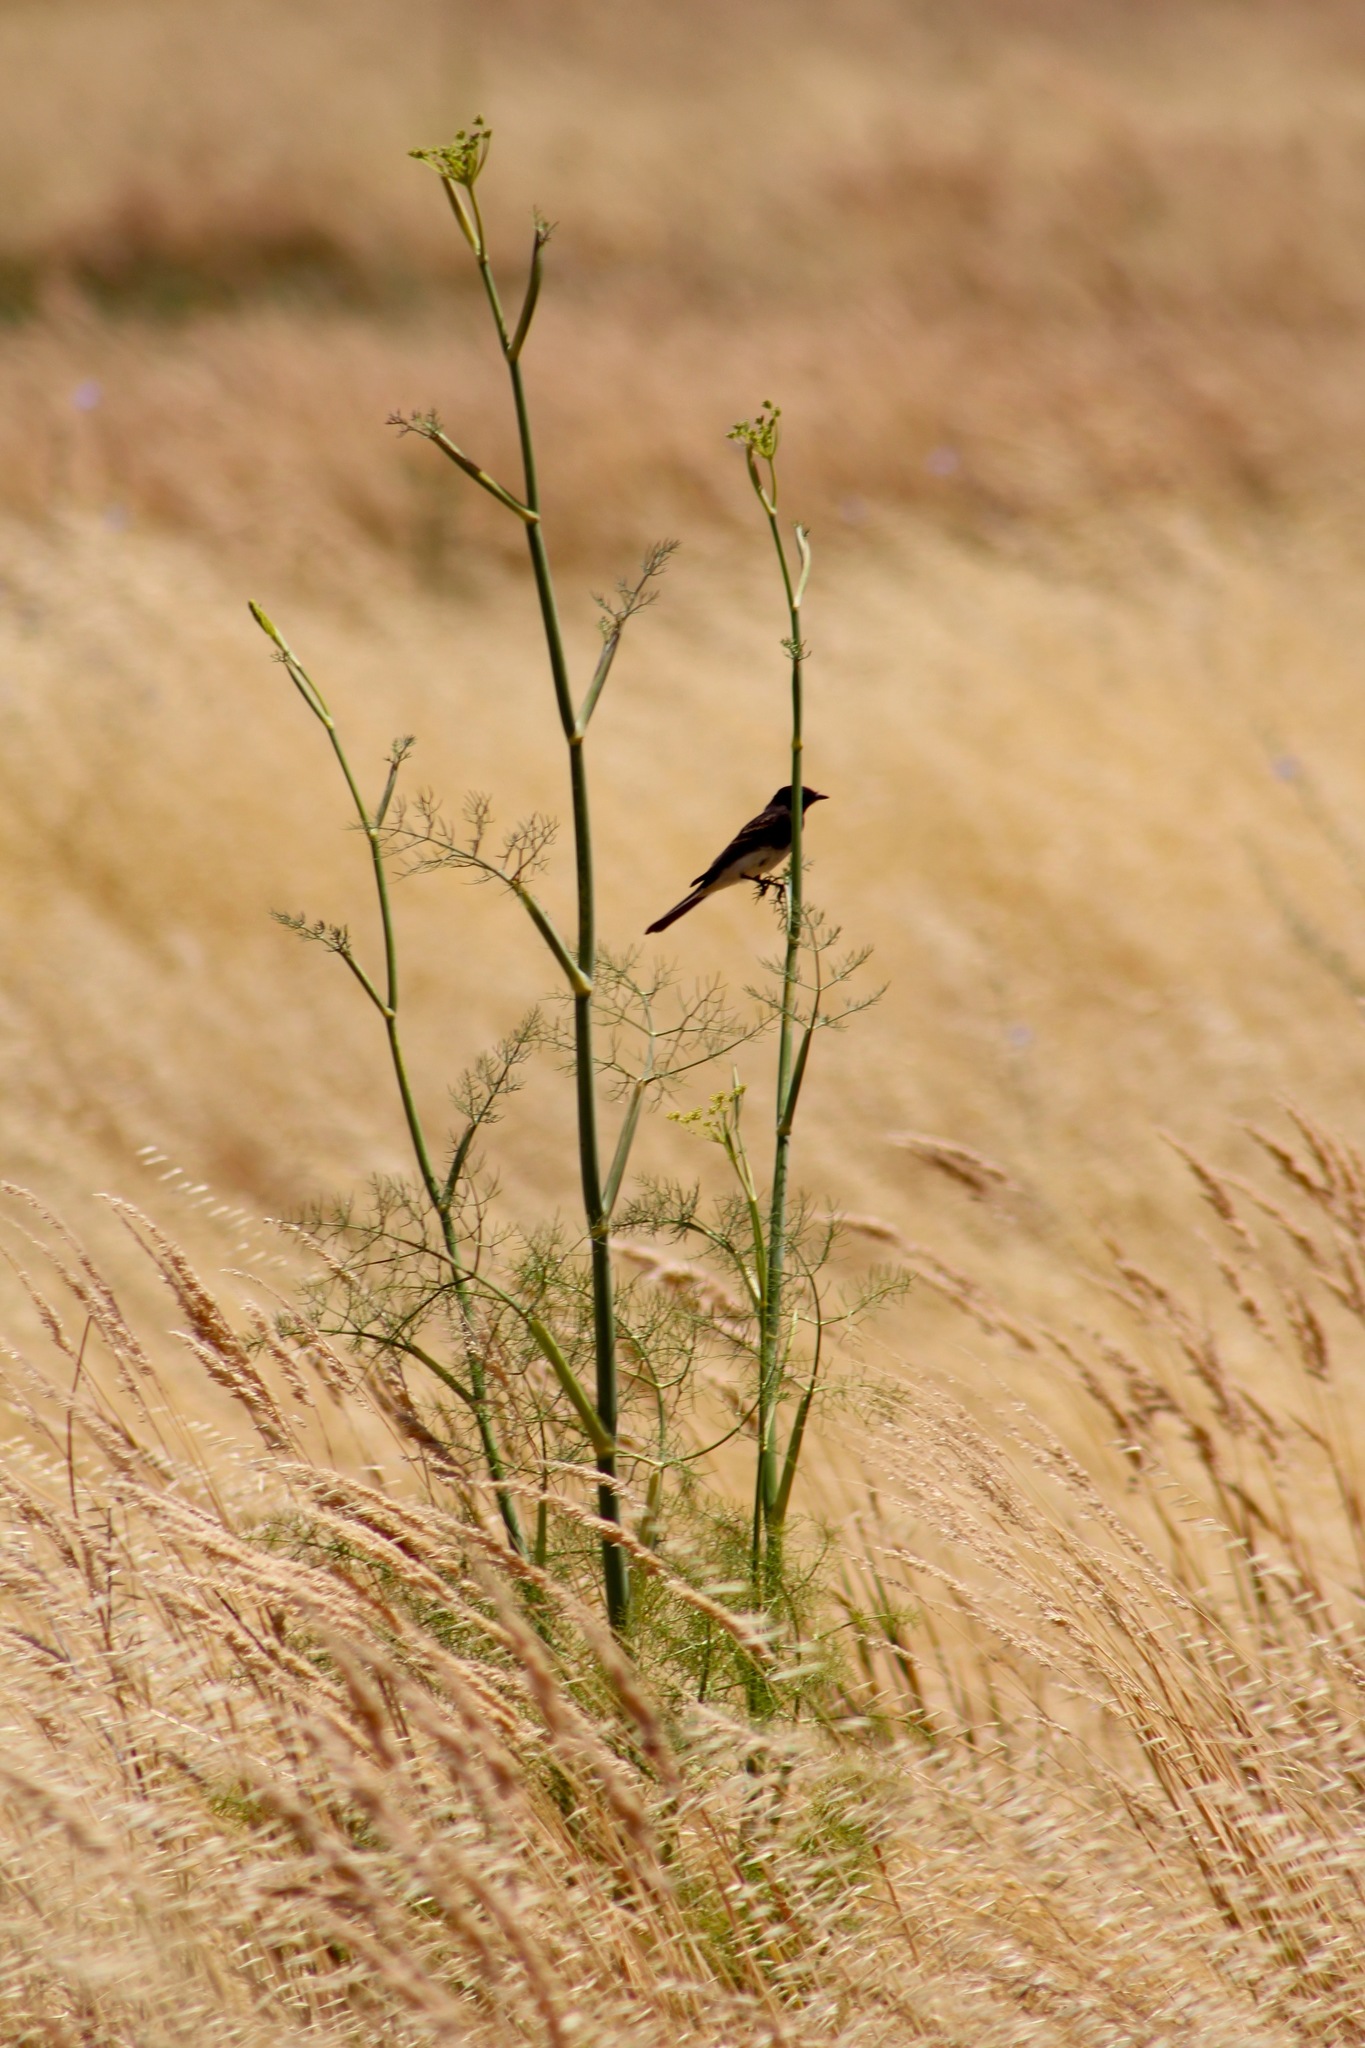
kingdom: Animalia
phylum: Chordata
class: Aves
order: Passeriformes
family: Tyrannidae
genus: Sayornis
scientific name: Sayornis nigricans
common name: Black phoebe
